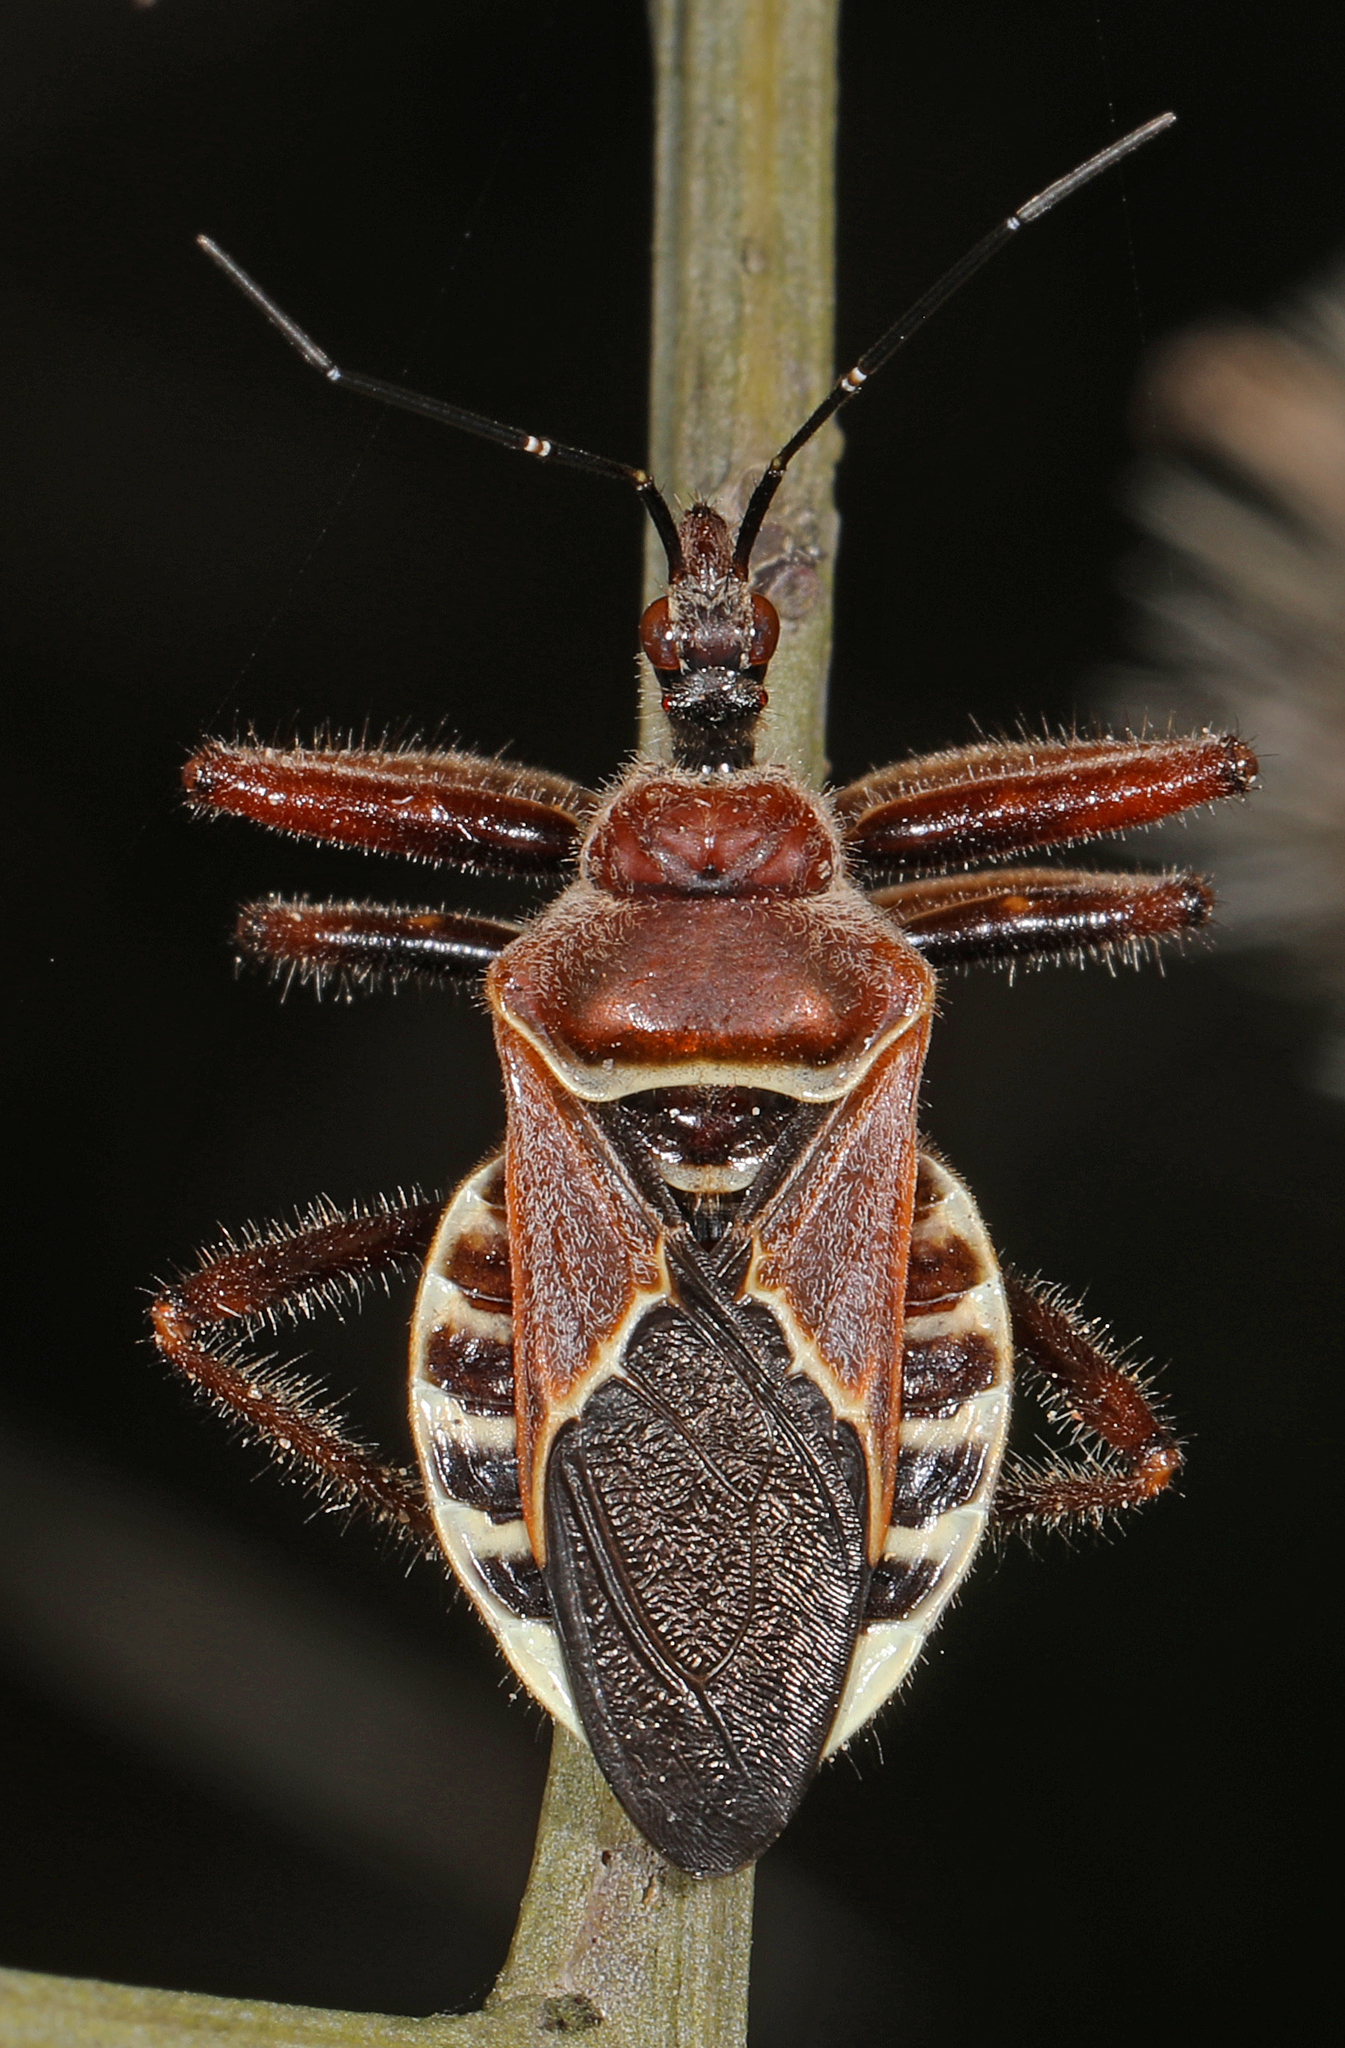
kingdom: Animalia
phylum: Arthropoda
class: Insecta
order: Hemiptera
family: Reduviidae
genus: Apiomerus
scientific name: Apiomerus spissipes
